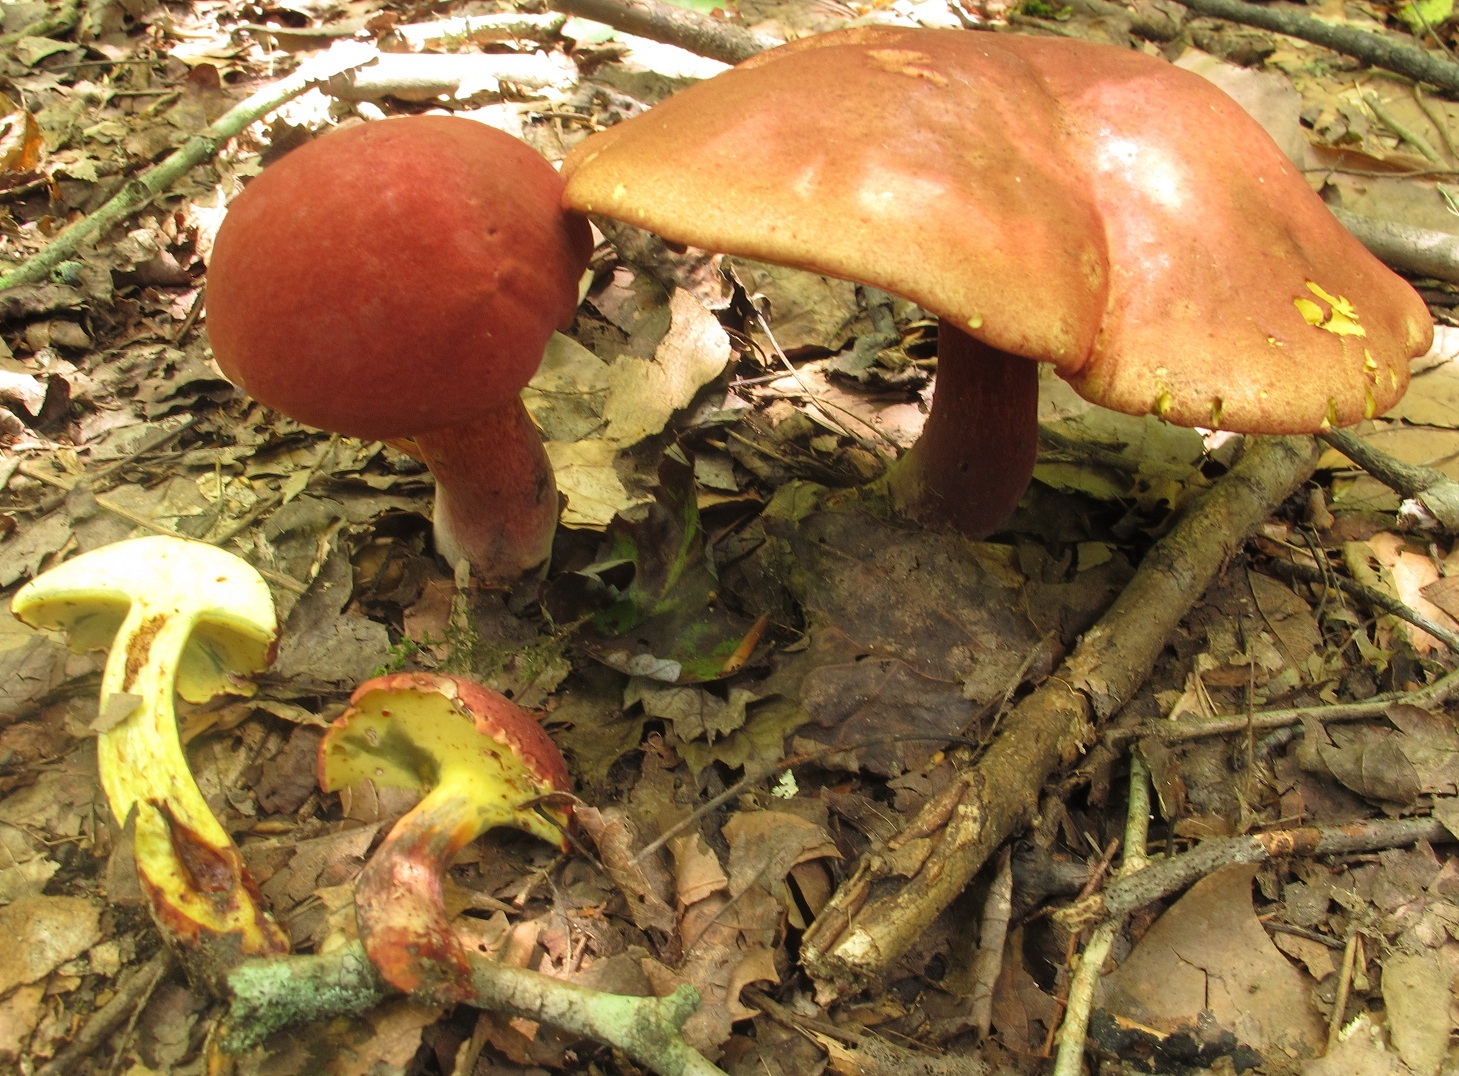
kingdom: Fungi
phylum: Basidiomycota
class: Agaricomycetes
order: Boletales
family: Boletaceae
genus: Baorangia
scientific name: Baorangia bicolor
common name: Two-colored bolete
